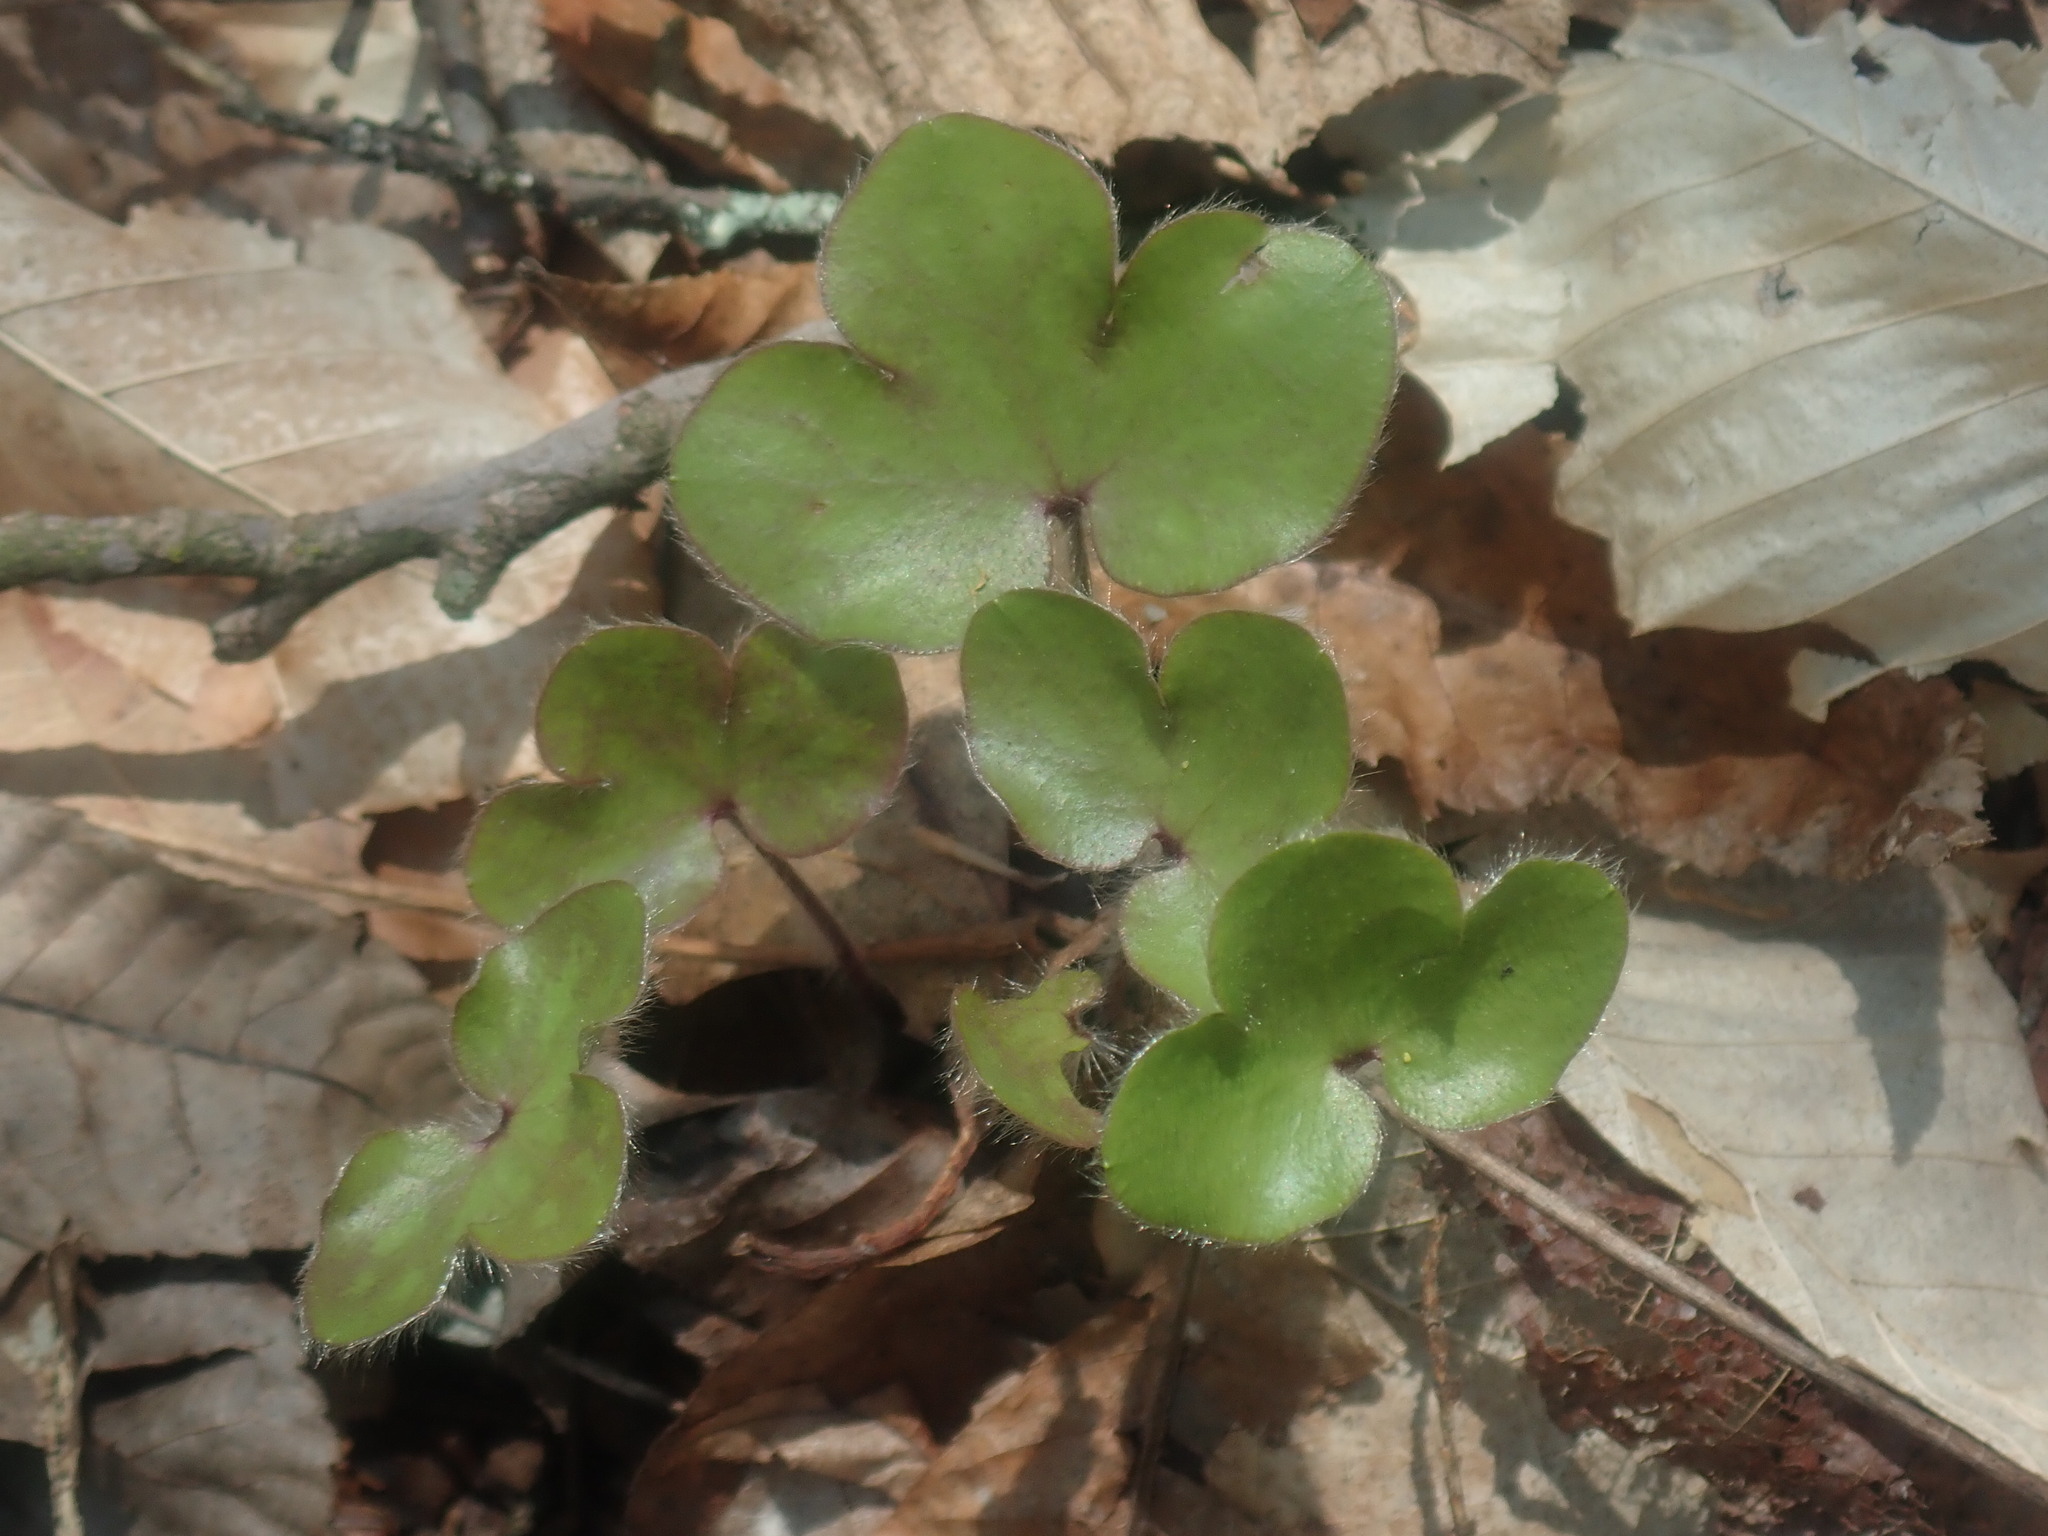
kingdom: Plantae
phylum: Tracheophyta
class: Magnoliopsida
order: Ranunculales
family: Ranunculaceae
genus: Hepatica
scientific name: Hepatica americana
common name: American hepatica
